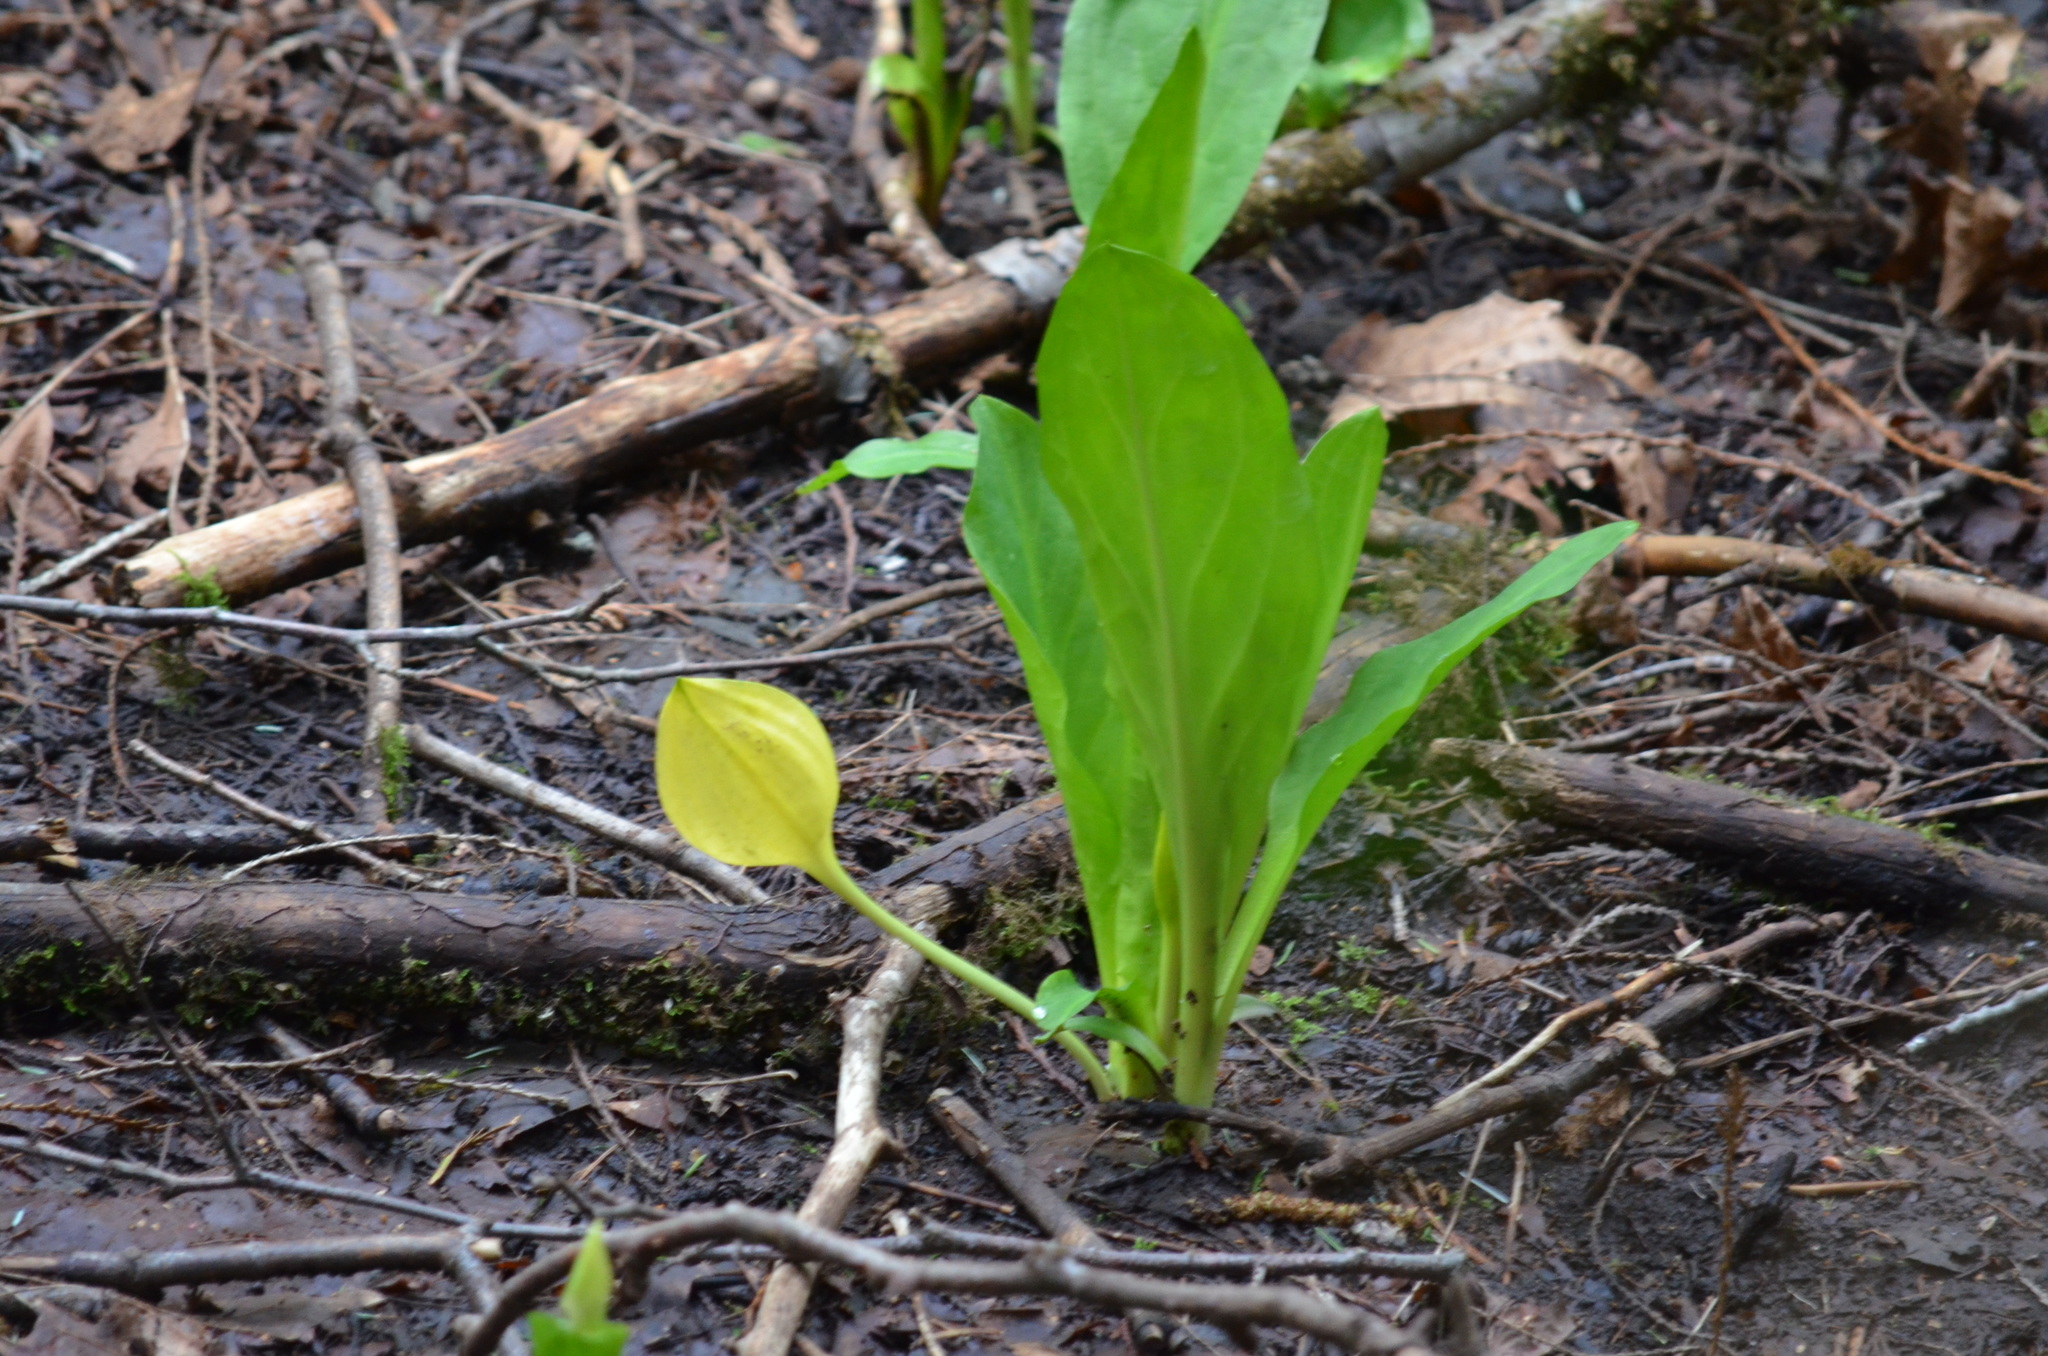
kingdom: Plantae
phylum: Tracheophyta
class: Liliopsida
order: Alismatales
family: Araceae
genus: Lysichiton
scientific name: Lysichiton americanus
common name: American skunk cabbage
